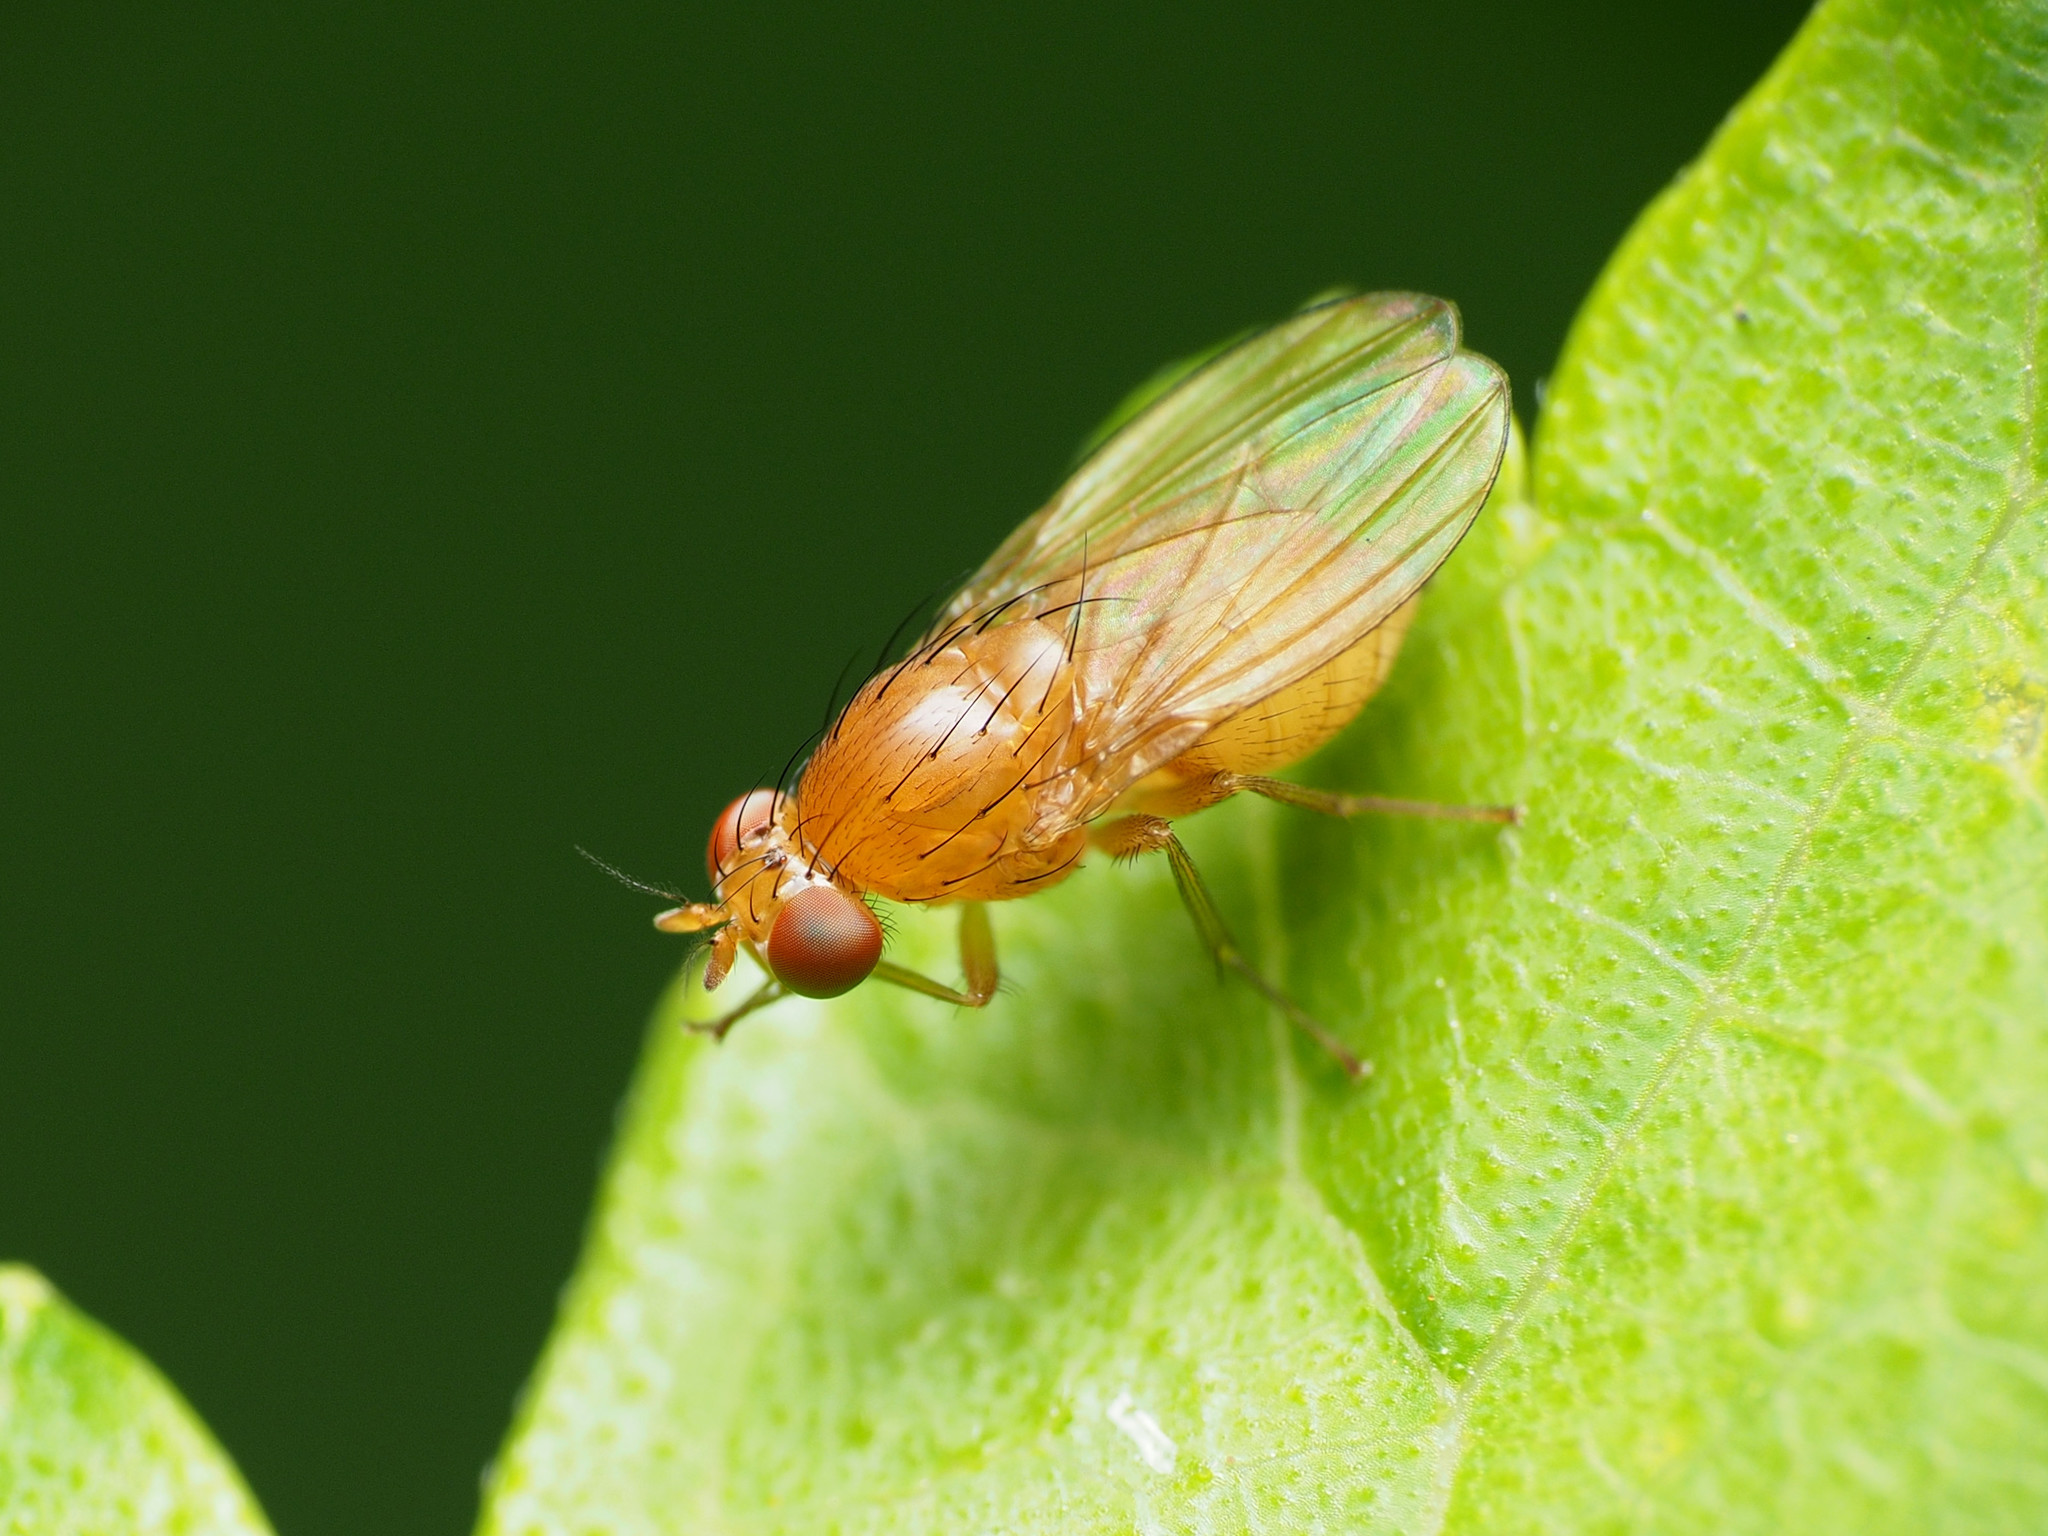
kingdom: Animalia
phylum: Arthropoda
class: Insecta
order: Diptera
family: Lauxaniidae
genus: Homoneura
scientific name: Homoneura unguiculata
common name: Beach fly
